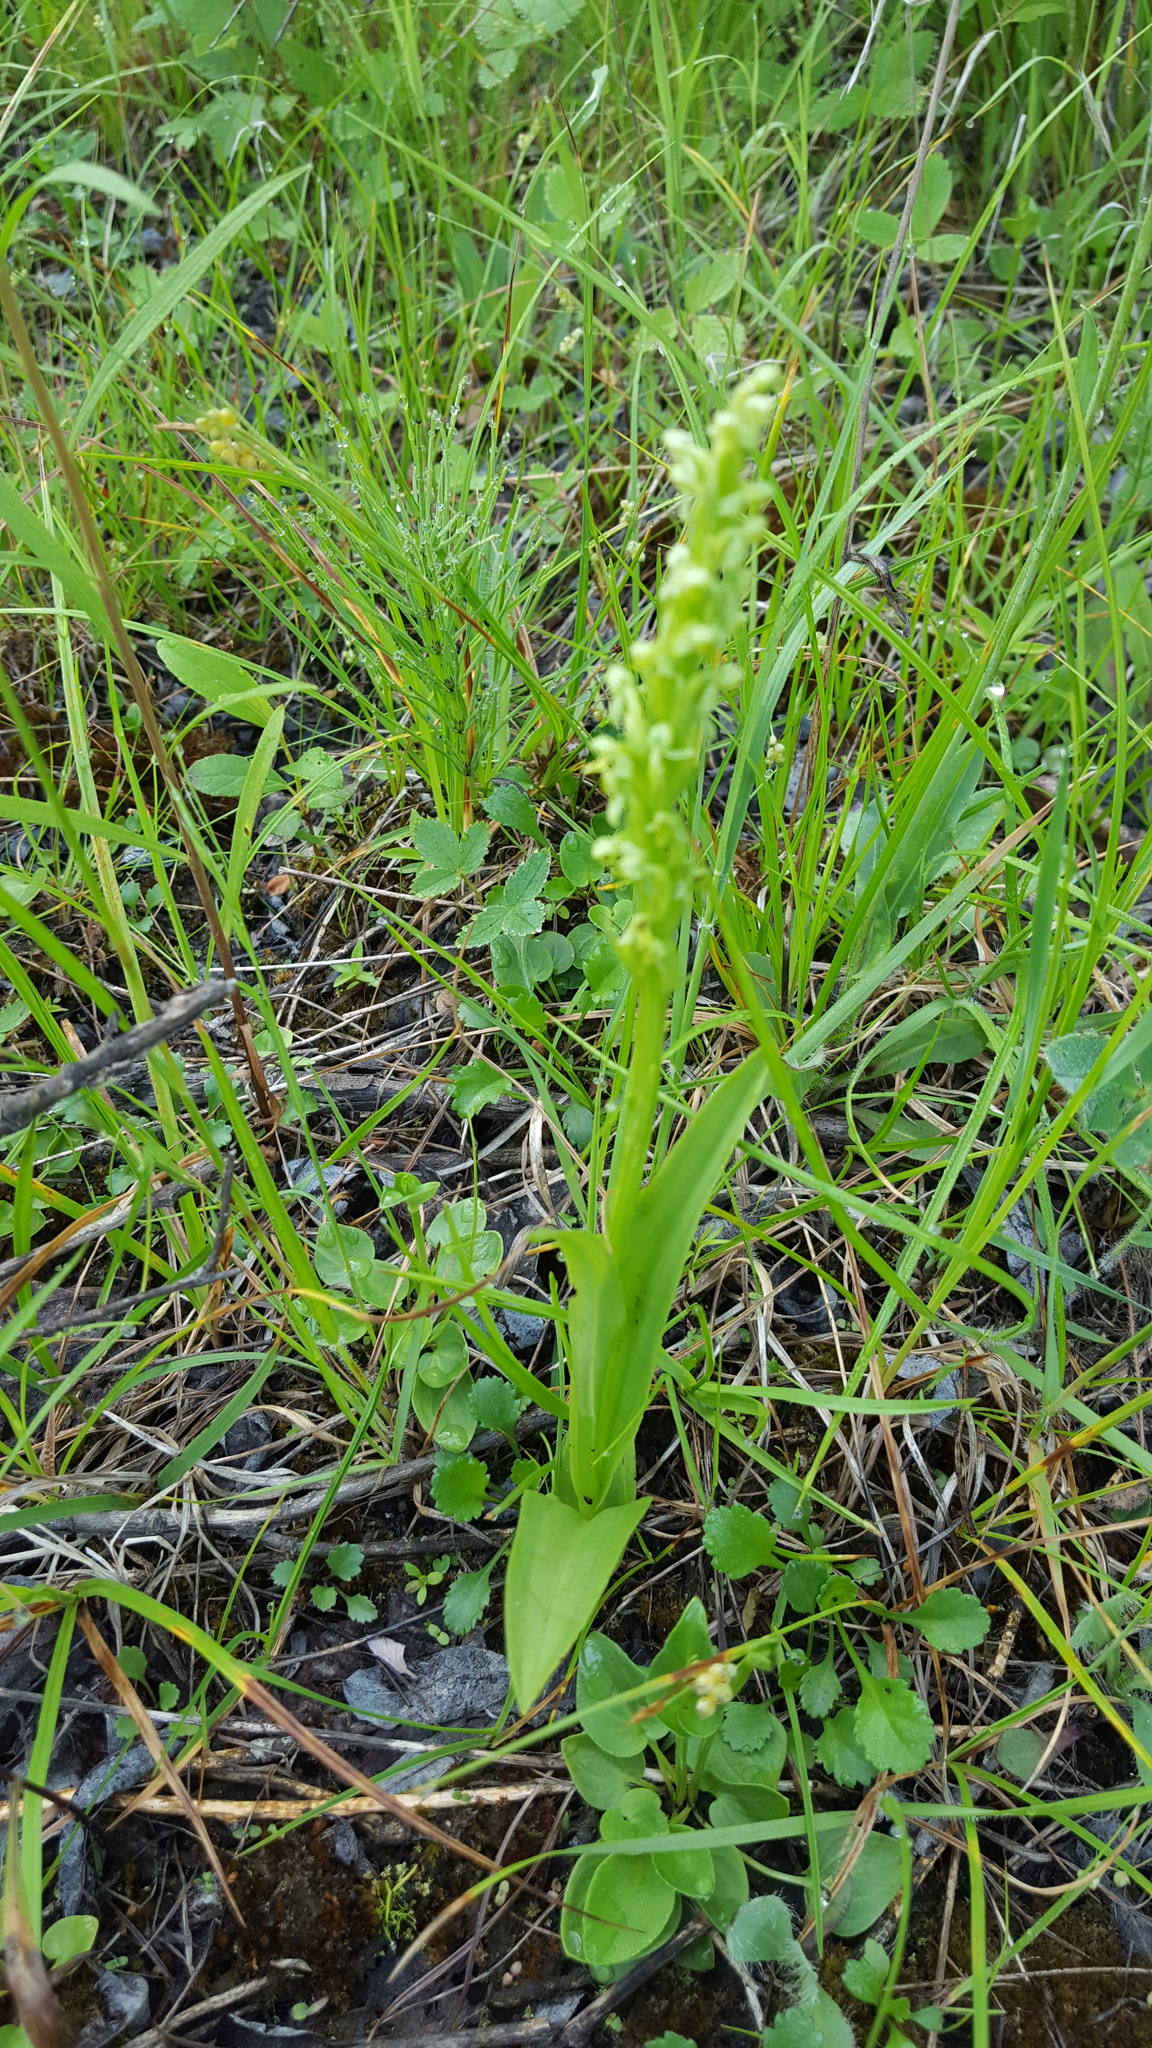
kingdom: Plantae
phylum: Tracheophyta
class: Liliopsida
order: Asparagales
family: Orchidaceae
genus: Platanthera
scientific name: Platanthera aquilonis
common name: Northern green orchid
